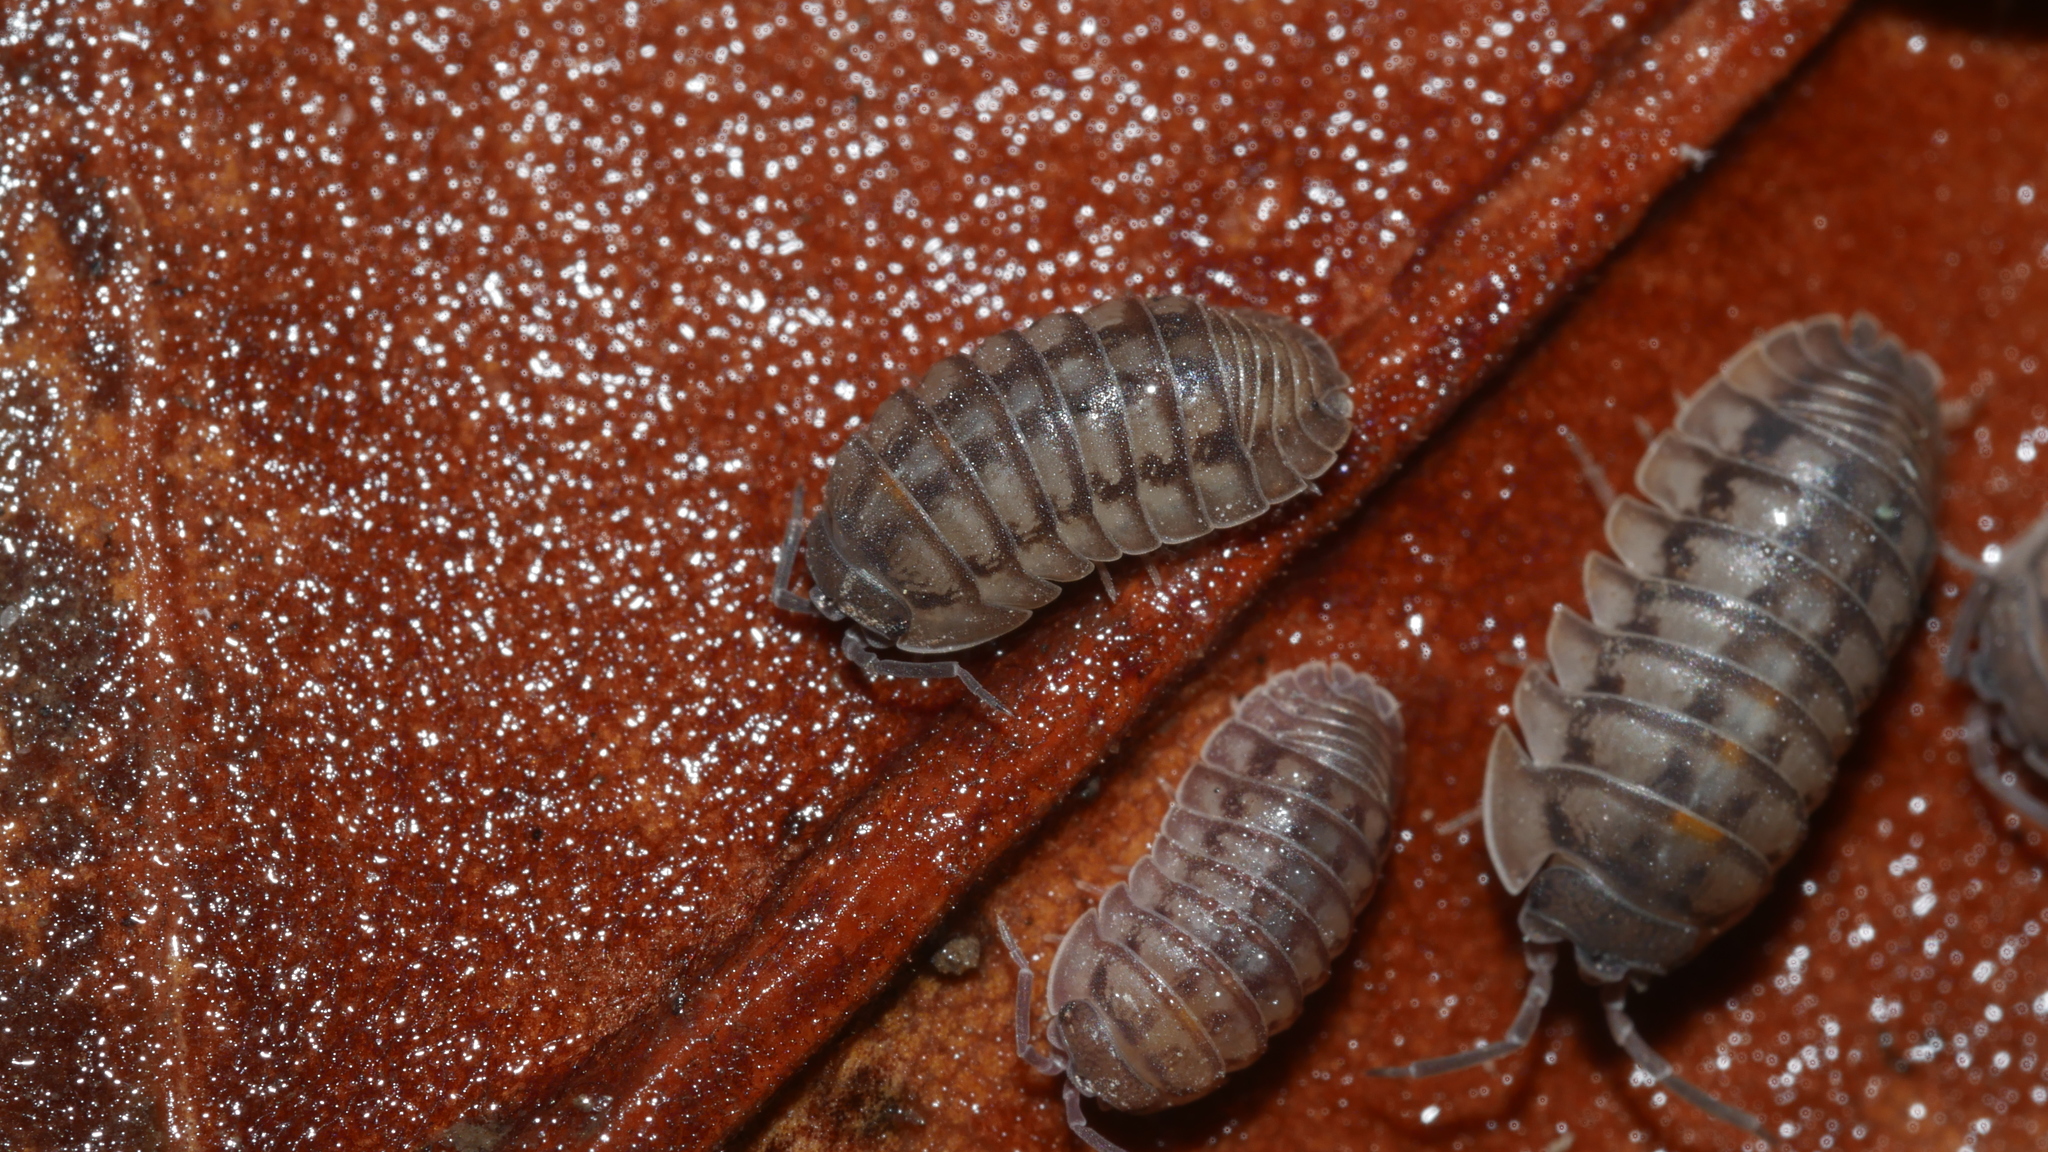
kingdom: Animalia
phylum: Arthropoda
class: Malacostraca
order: Isopoda
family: Armadillidiidae
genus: Armadillidium
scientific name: Armadillidium nasatum
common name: Isopod
